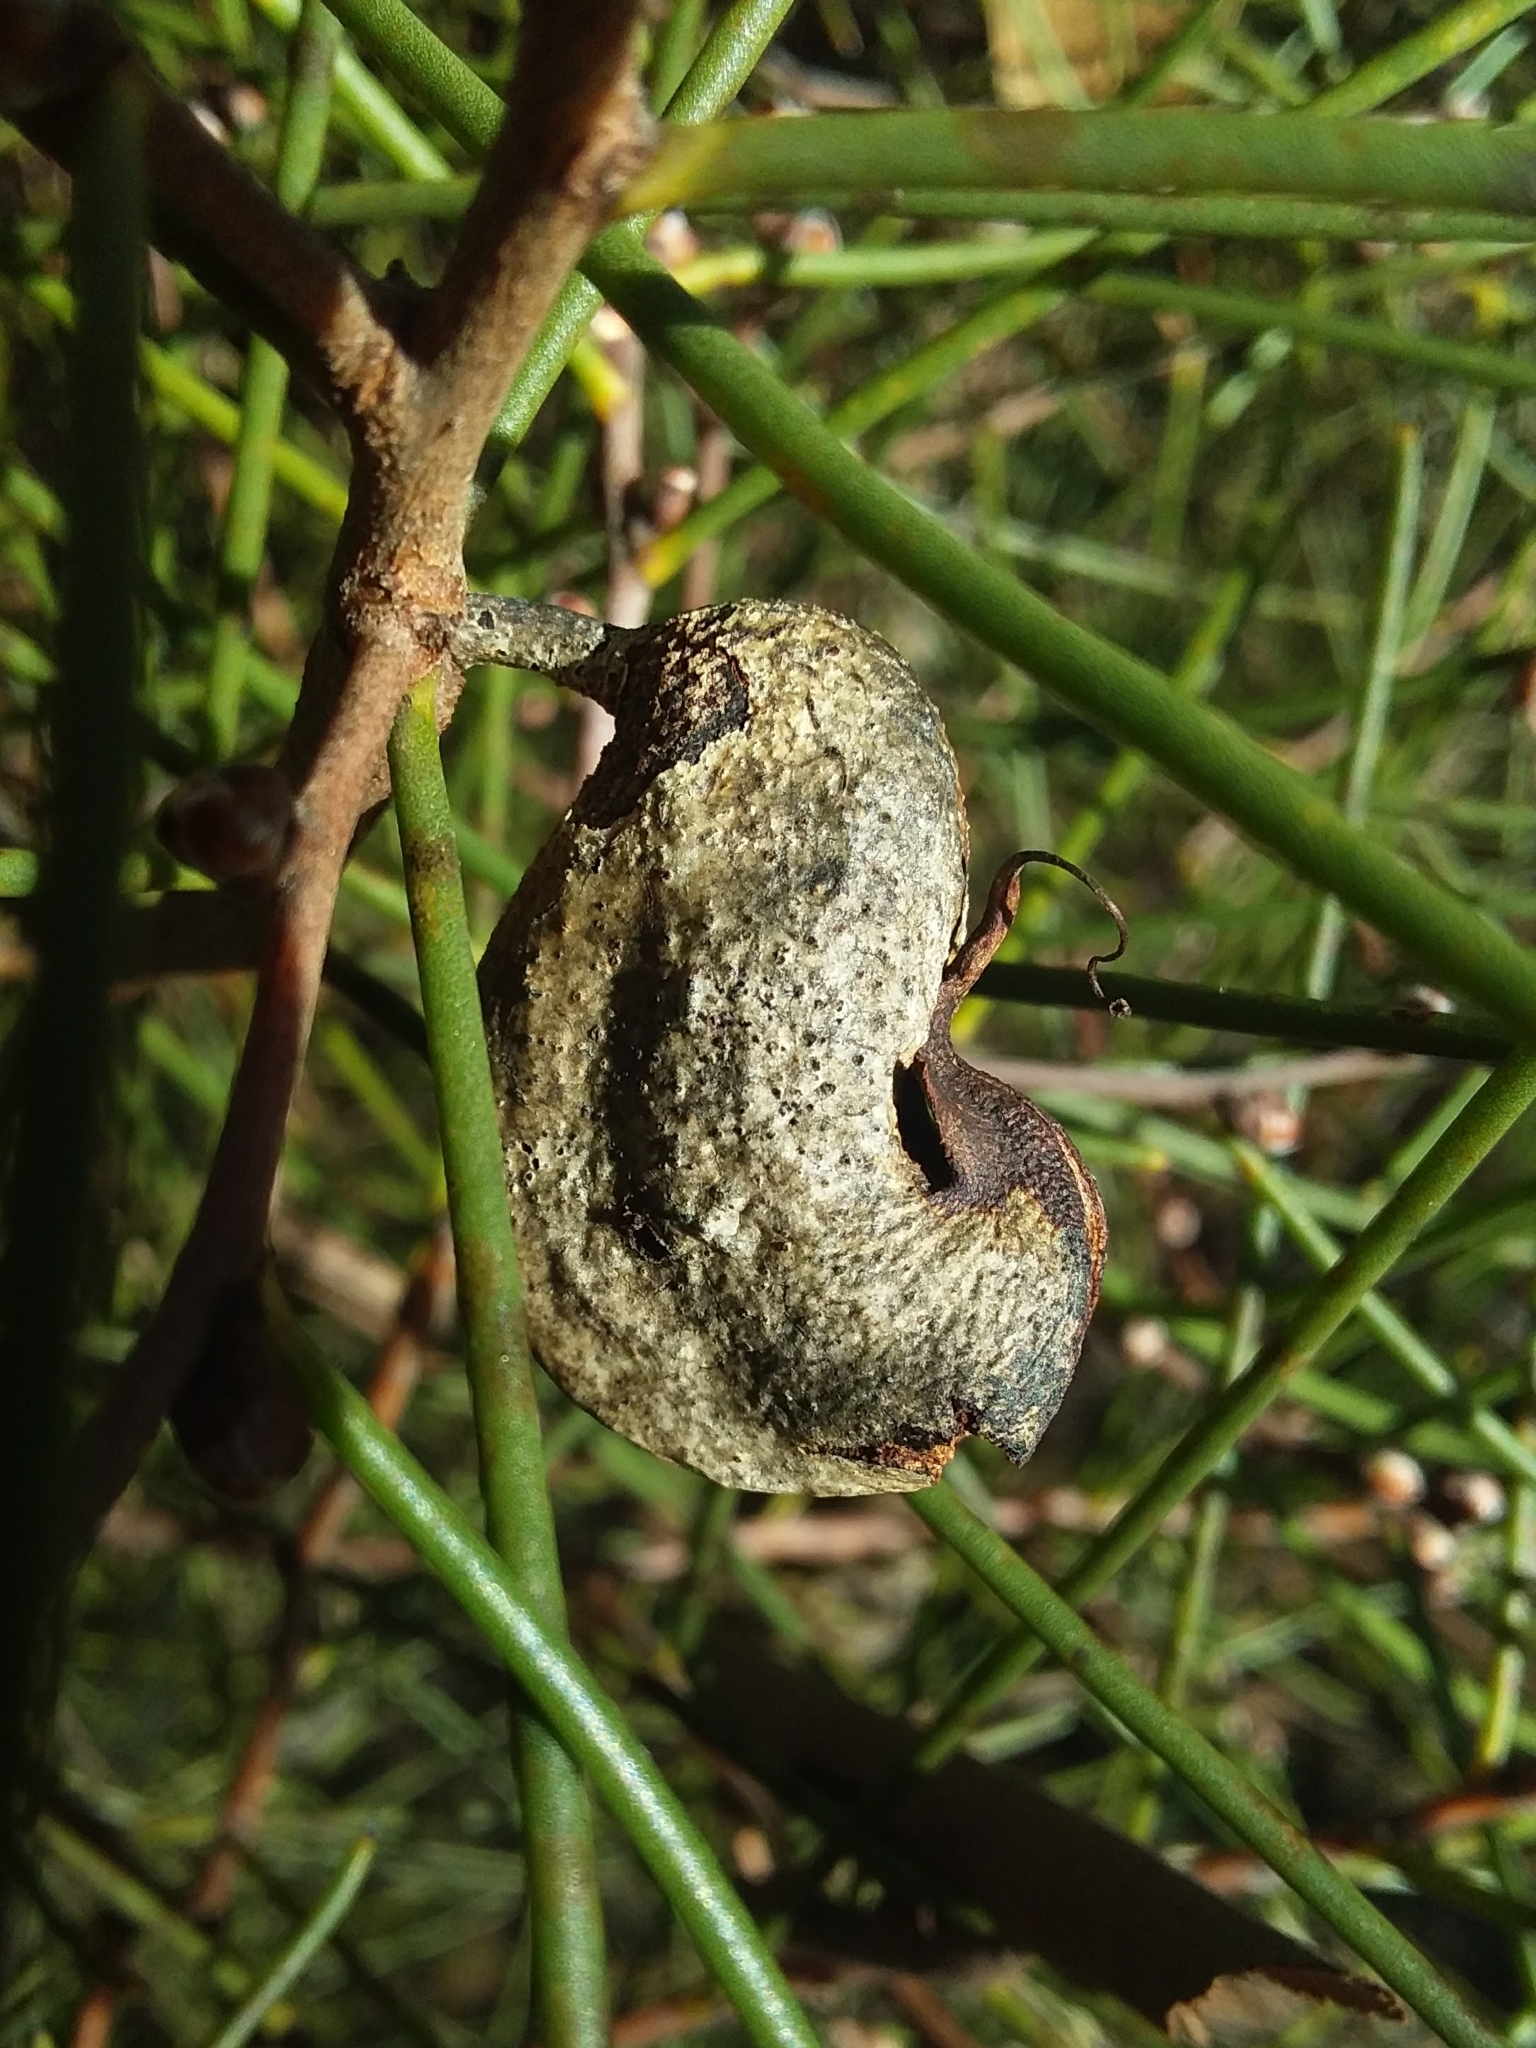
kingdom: Plantae
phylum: Tracheophyta
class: Magnoliopsida
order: Proteales
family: Proteaceae
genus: Hakea
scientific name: Hakea rostrata
